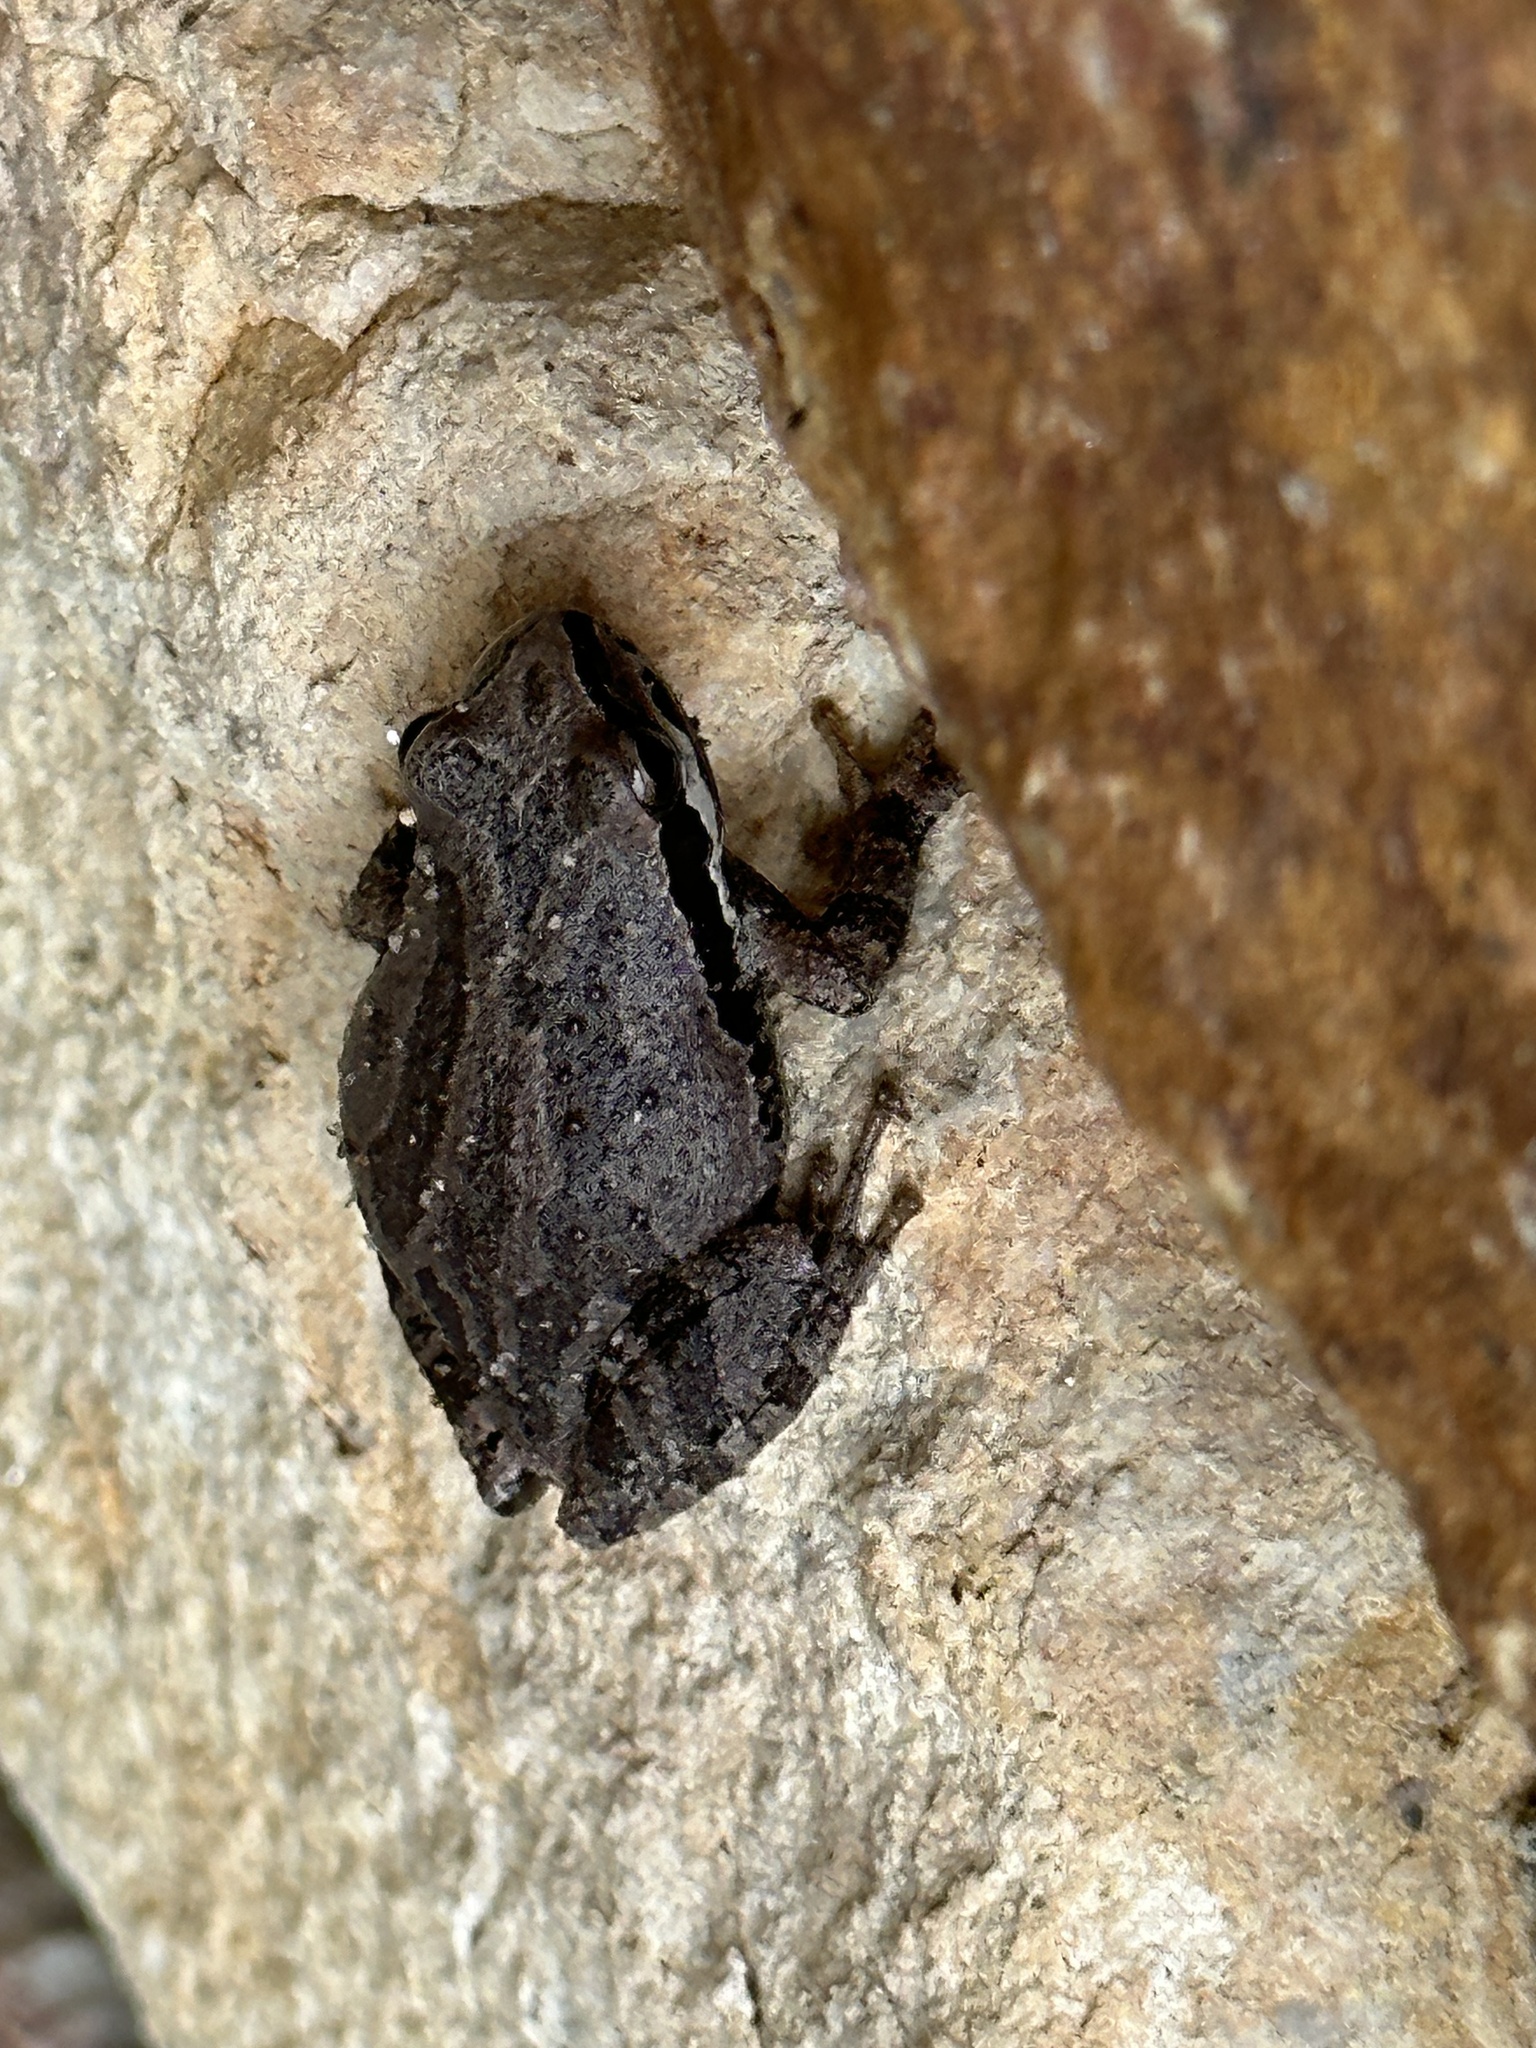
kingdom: Animalia
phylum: Chordata
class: Amphibia
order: Anura
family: Hylidae
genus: Pseudacris
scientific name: Pseudacris regilla
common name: Pacific chorus frog
